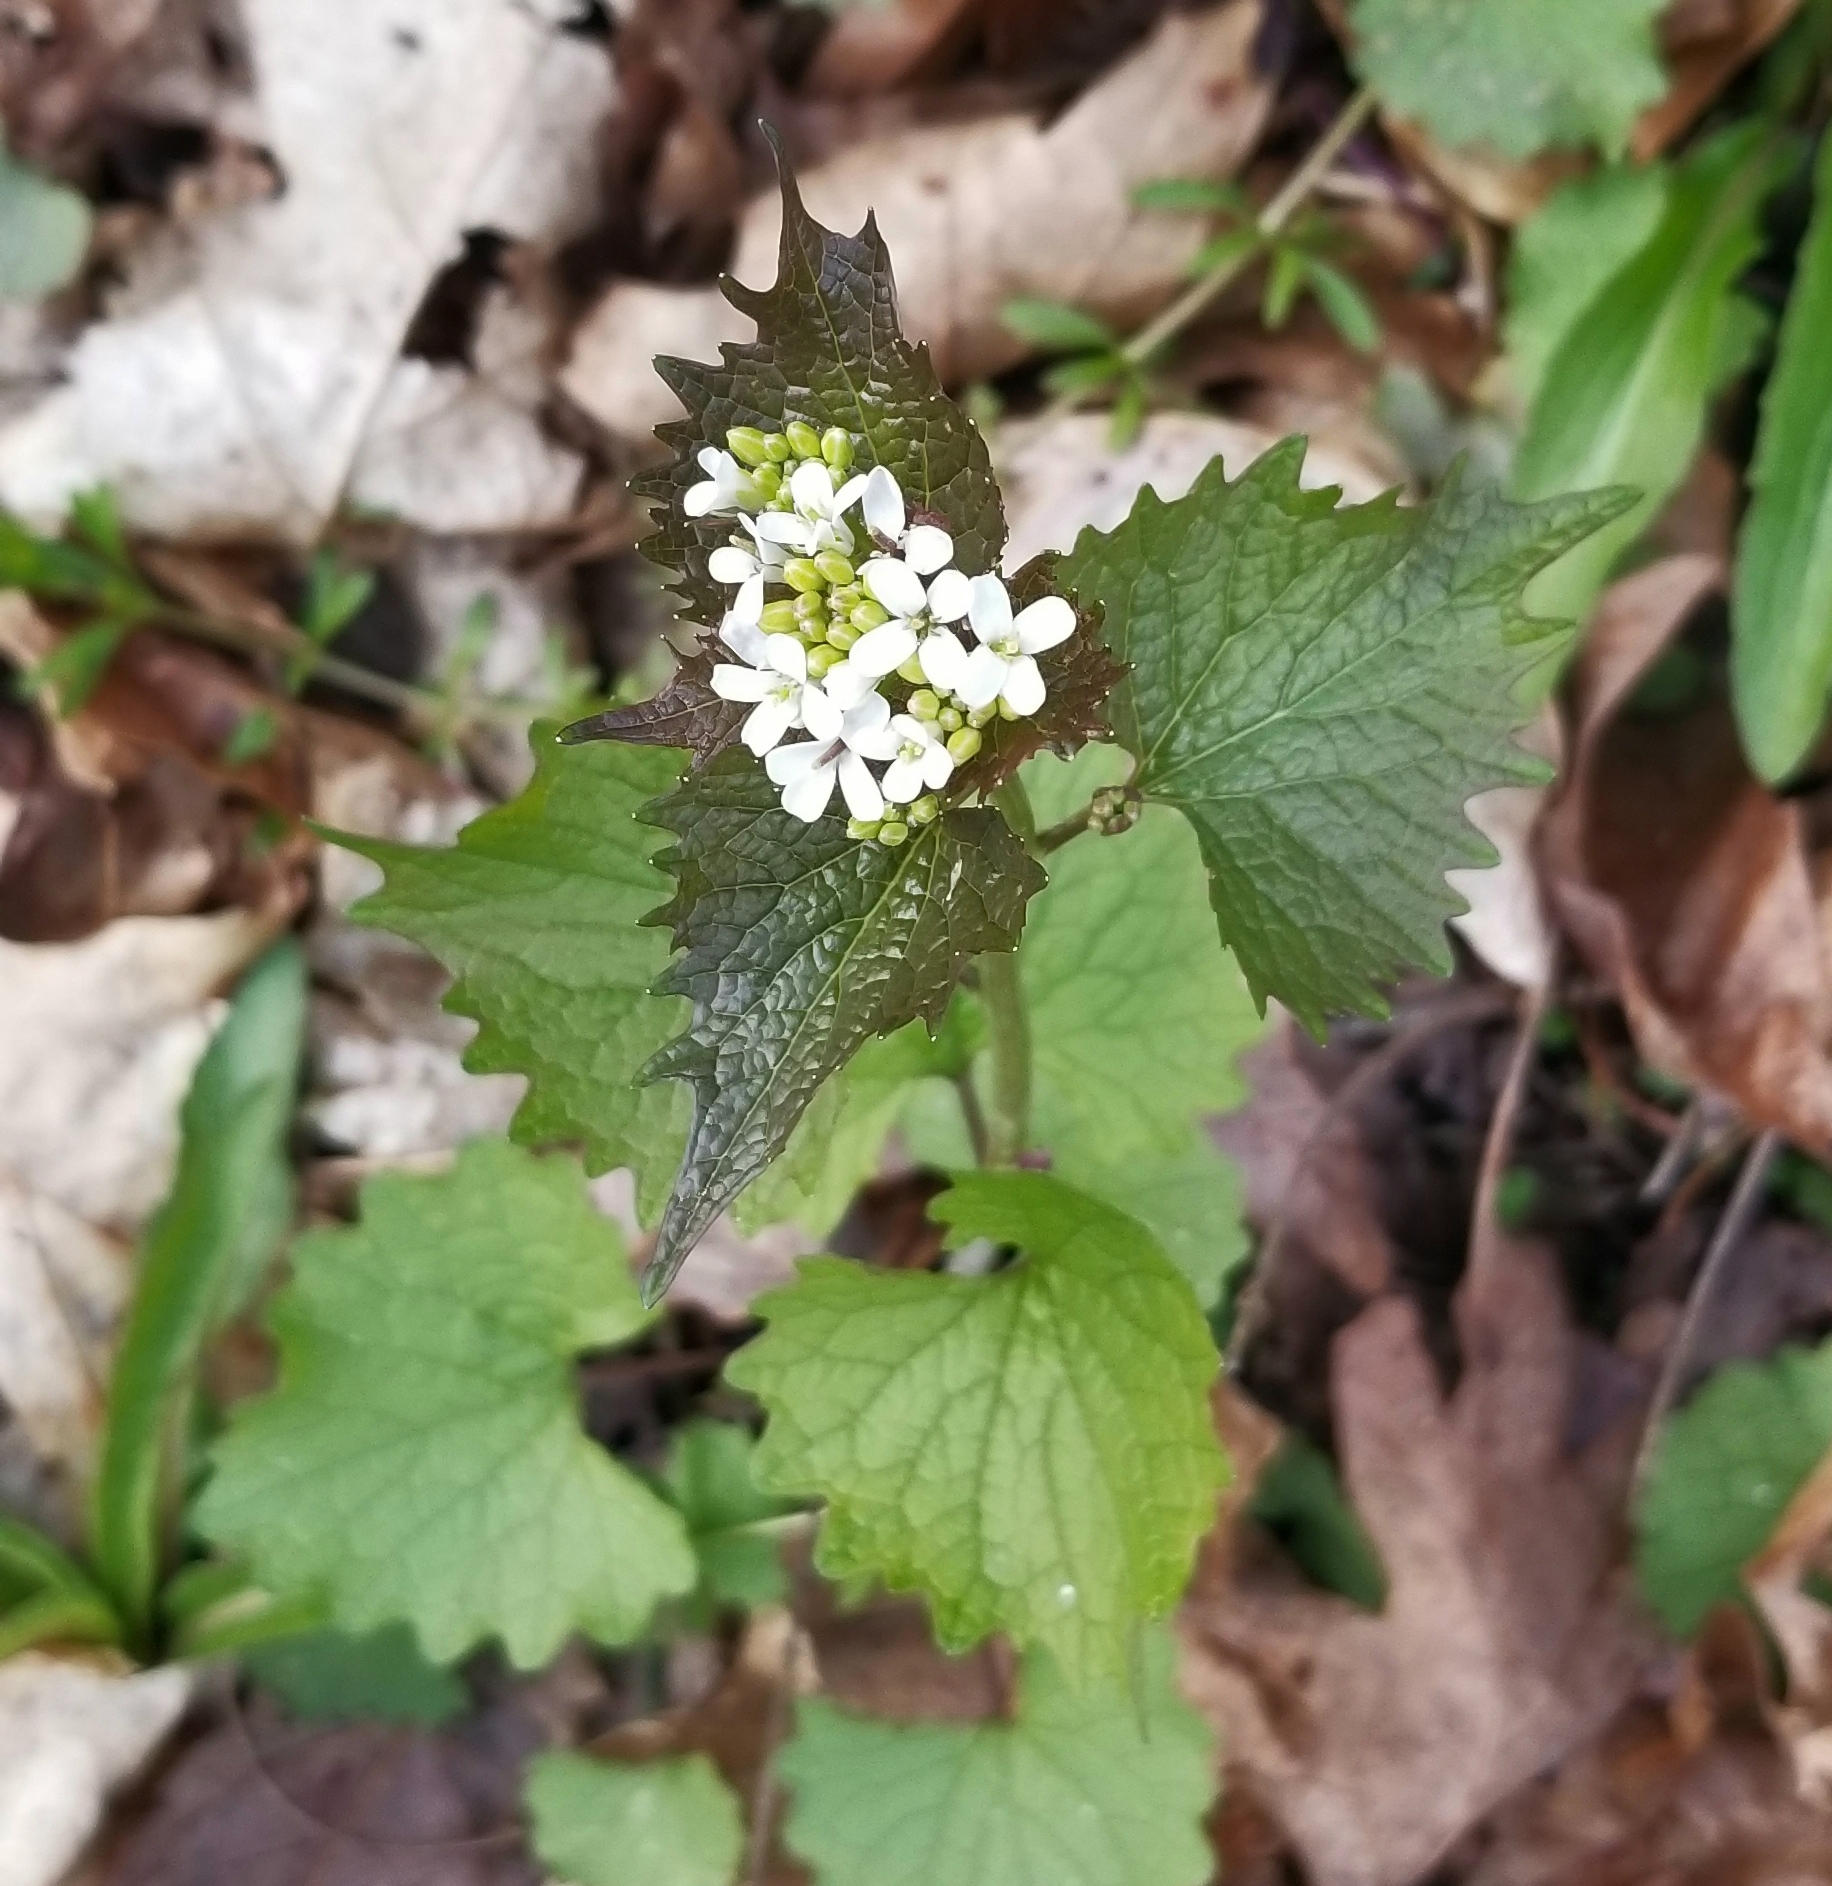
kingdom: Plantae
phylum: Tracheophyta
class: Magnoliopsida
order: Brassicales
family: Brassicaceae
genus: Alliaria
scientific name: Alliaria petiolata
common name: Garlic mustard
